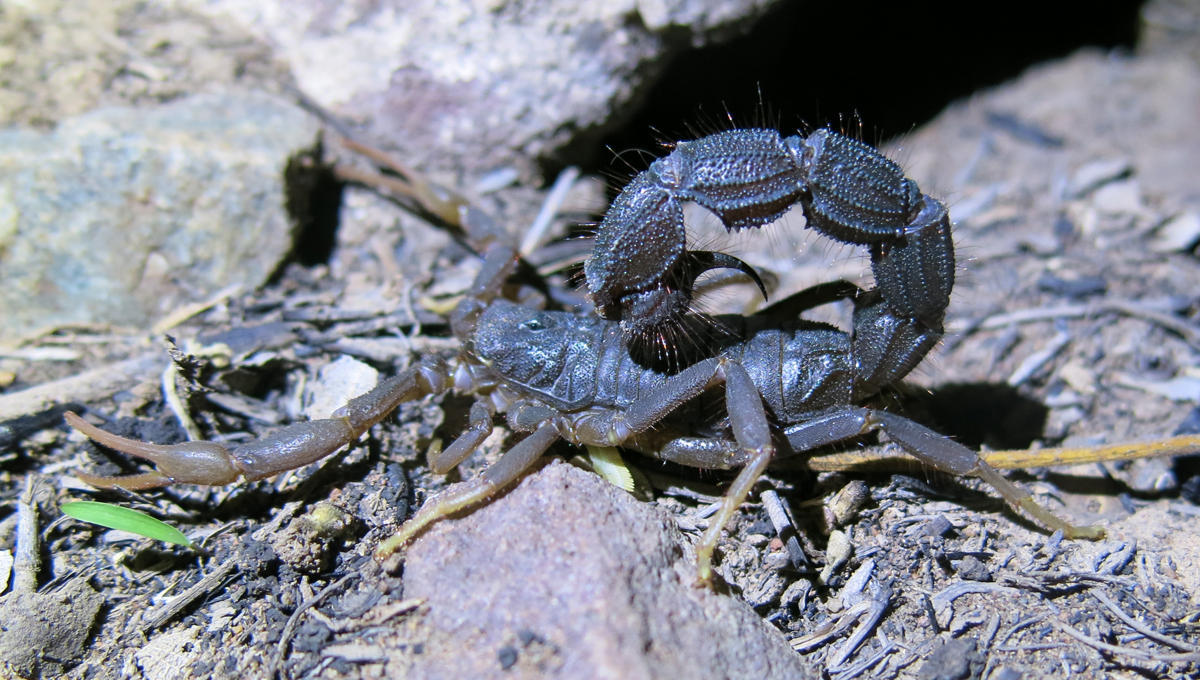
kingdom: Animalia
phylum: Arthropoda
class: Arachnida
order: Scorpiones
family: Buthidae
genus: Parabuthus
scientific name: Parabuthus transvaalicus
